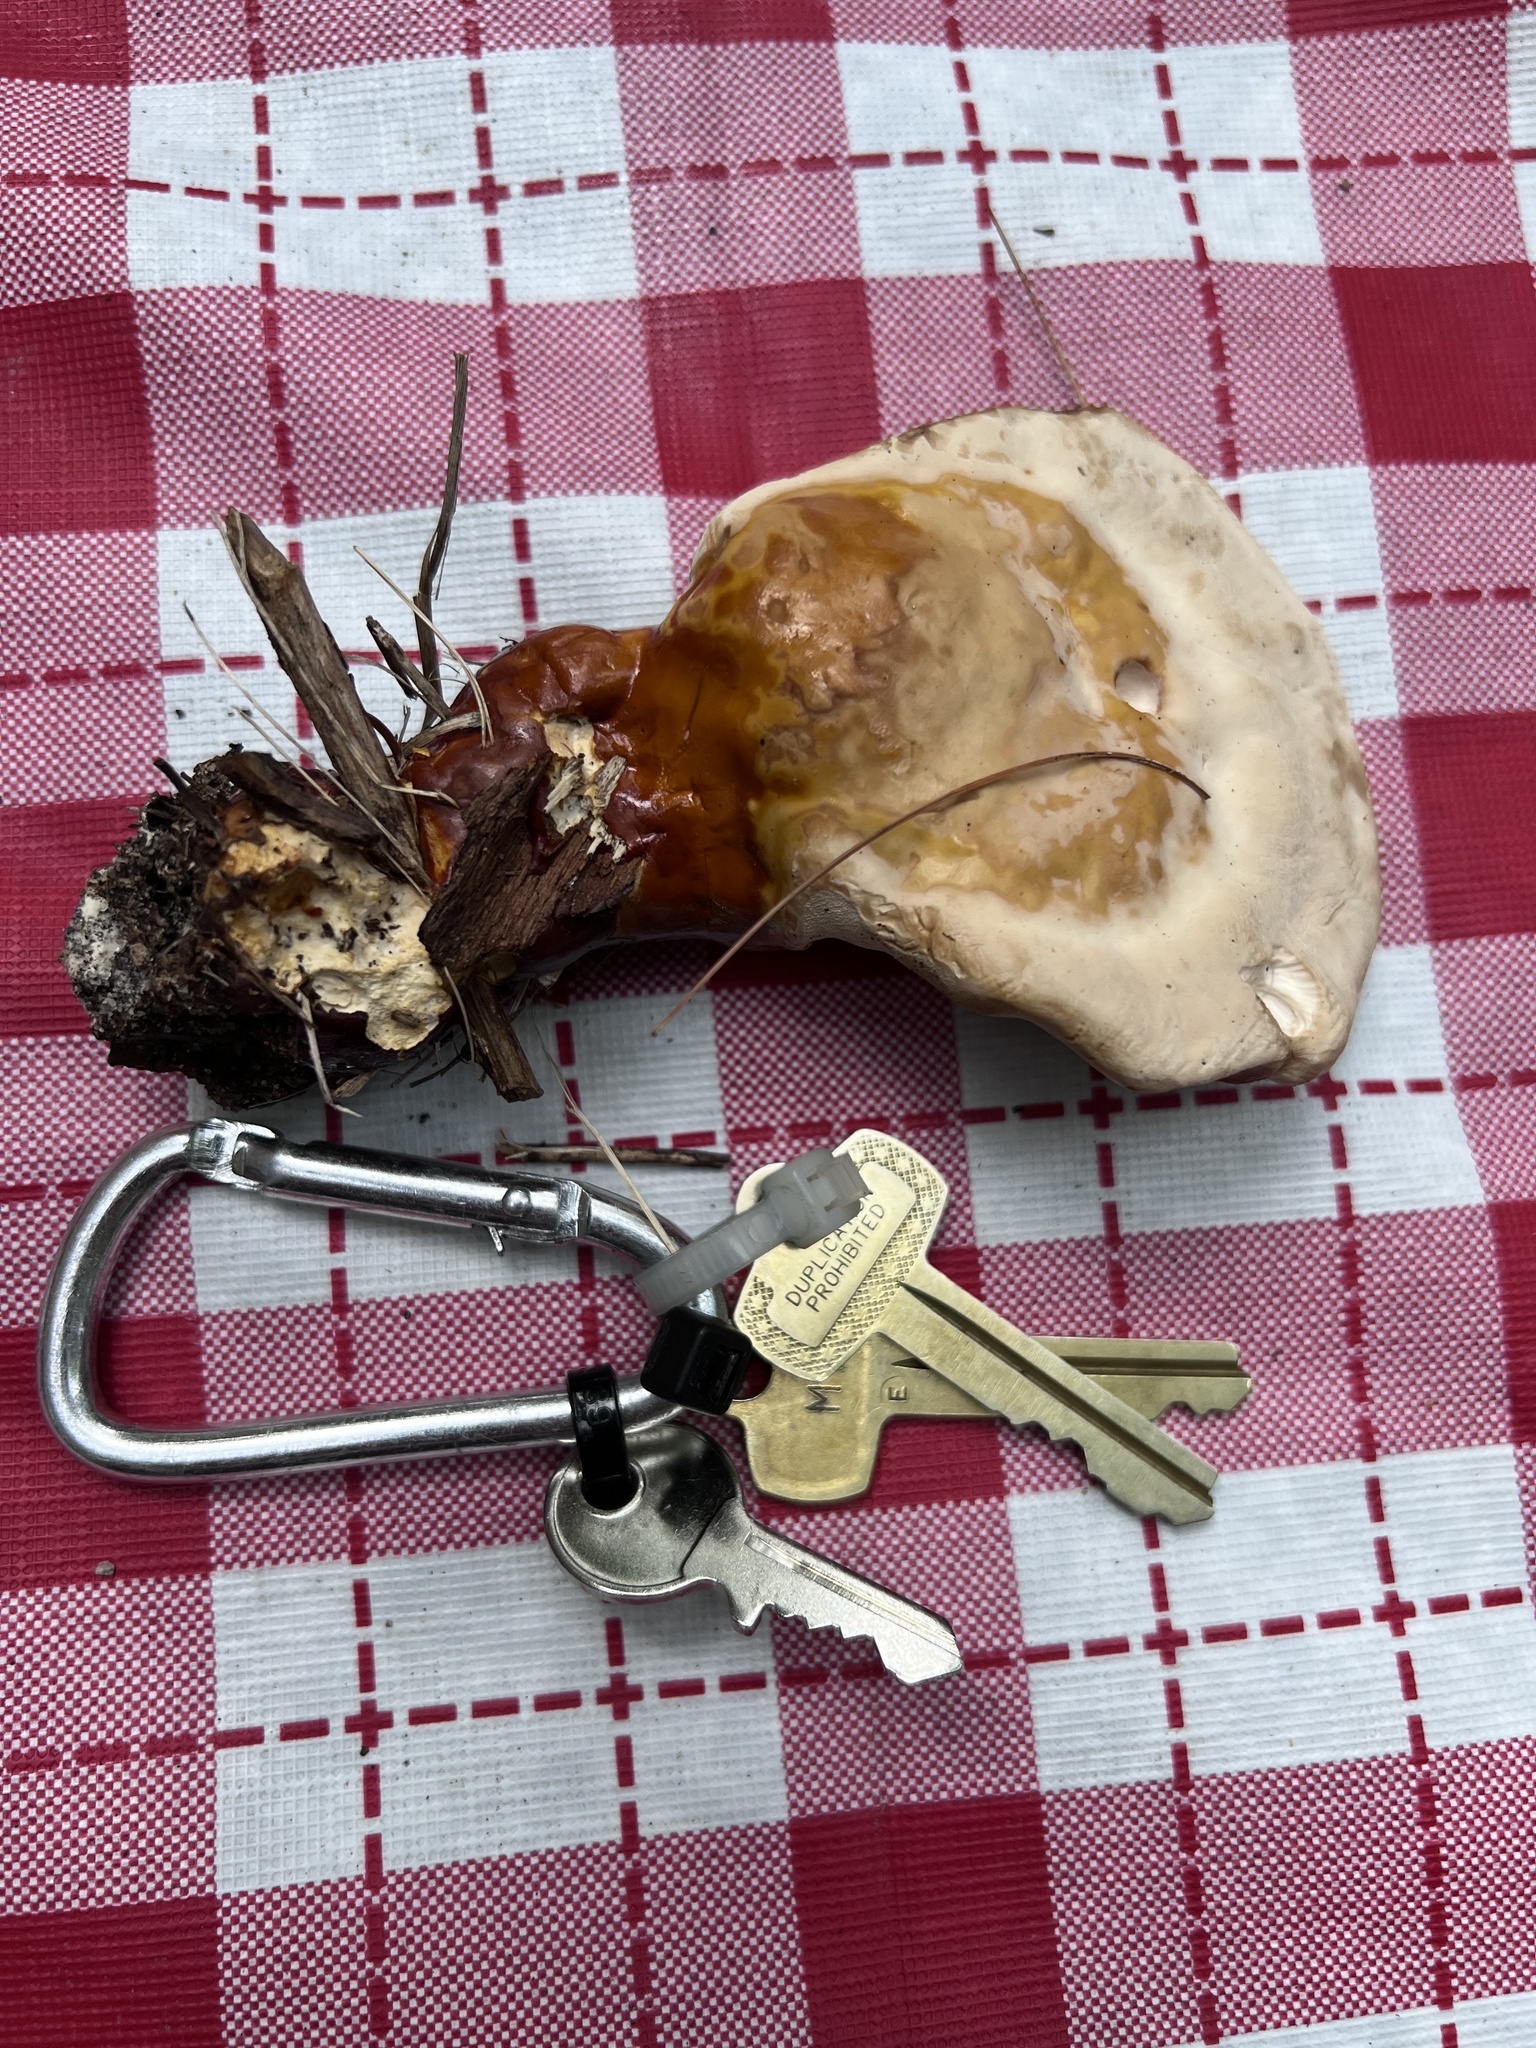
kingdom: Fungi
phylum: Basidiomycota
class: Agaricomycetes
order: Polyporales
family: Polyporaceae
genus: Ganoderma
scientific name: Ganoderma resinaceum
